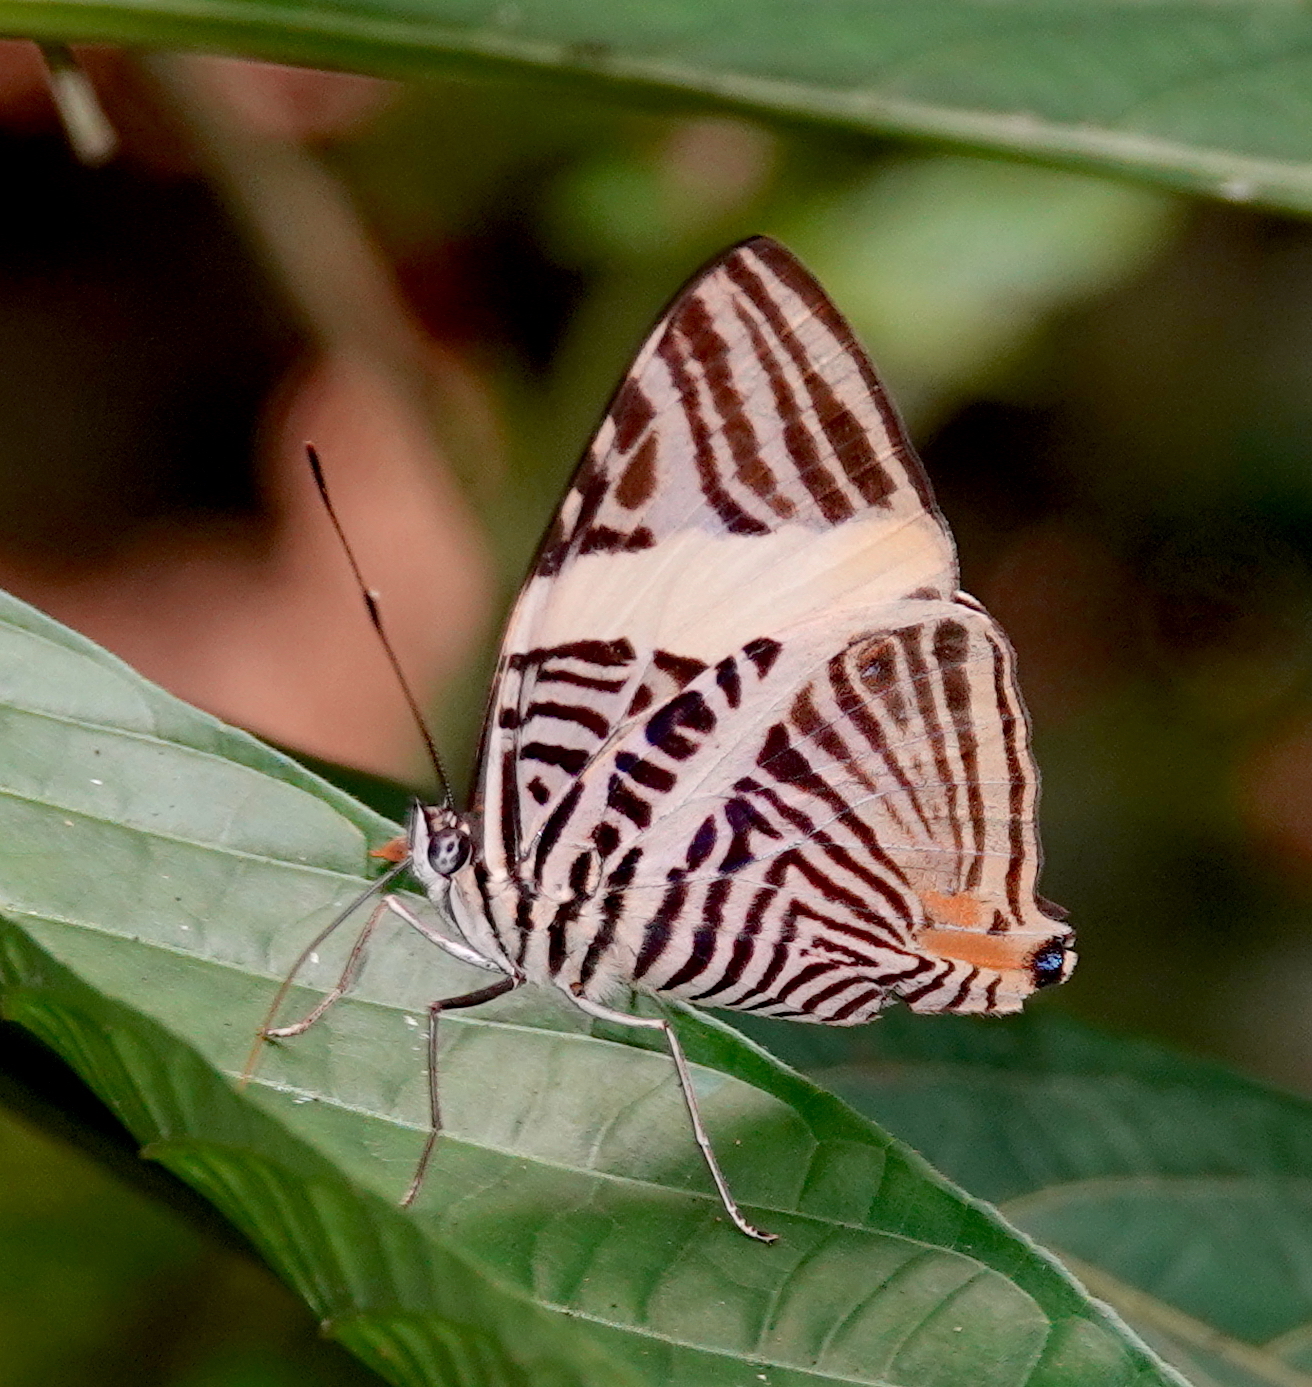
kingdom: Animalia
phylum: Arthropoda
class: Insecta
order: Lepidoptera
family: Nymphalidae
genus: Colobura
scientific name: Colobura annulata
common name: New beauty
